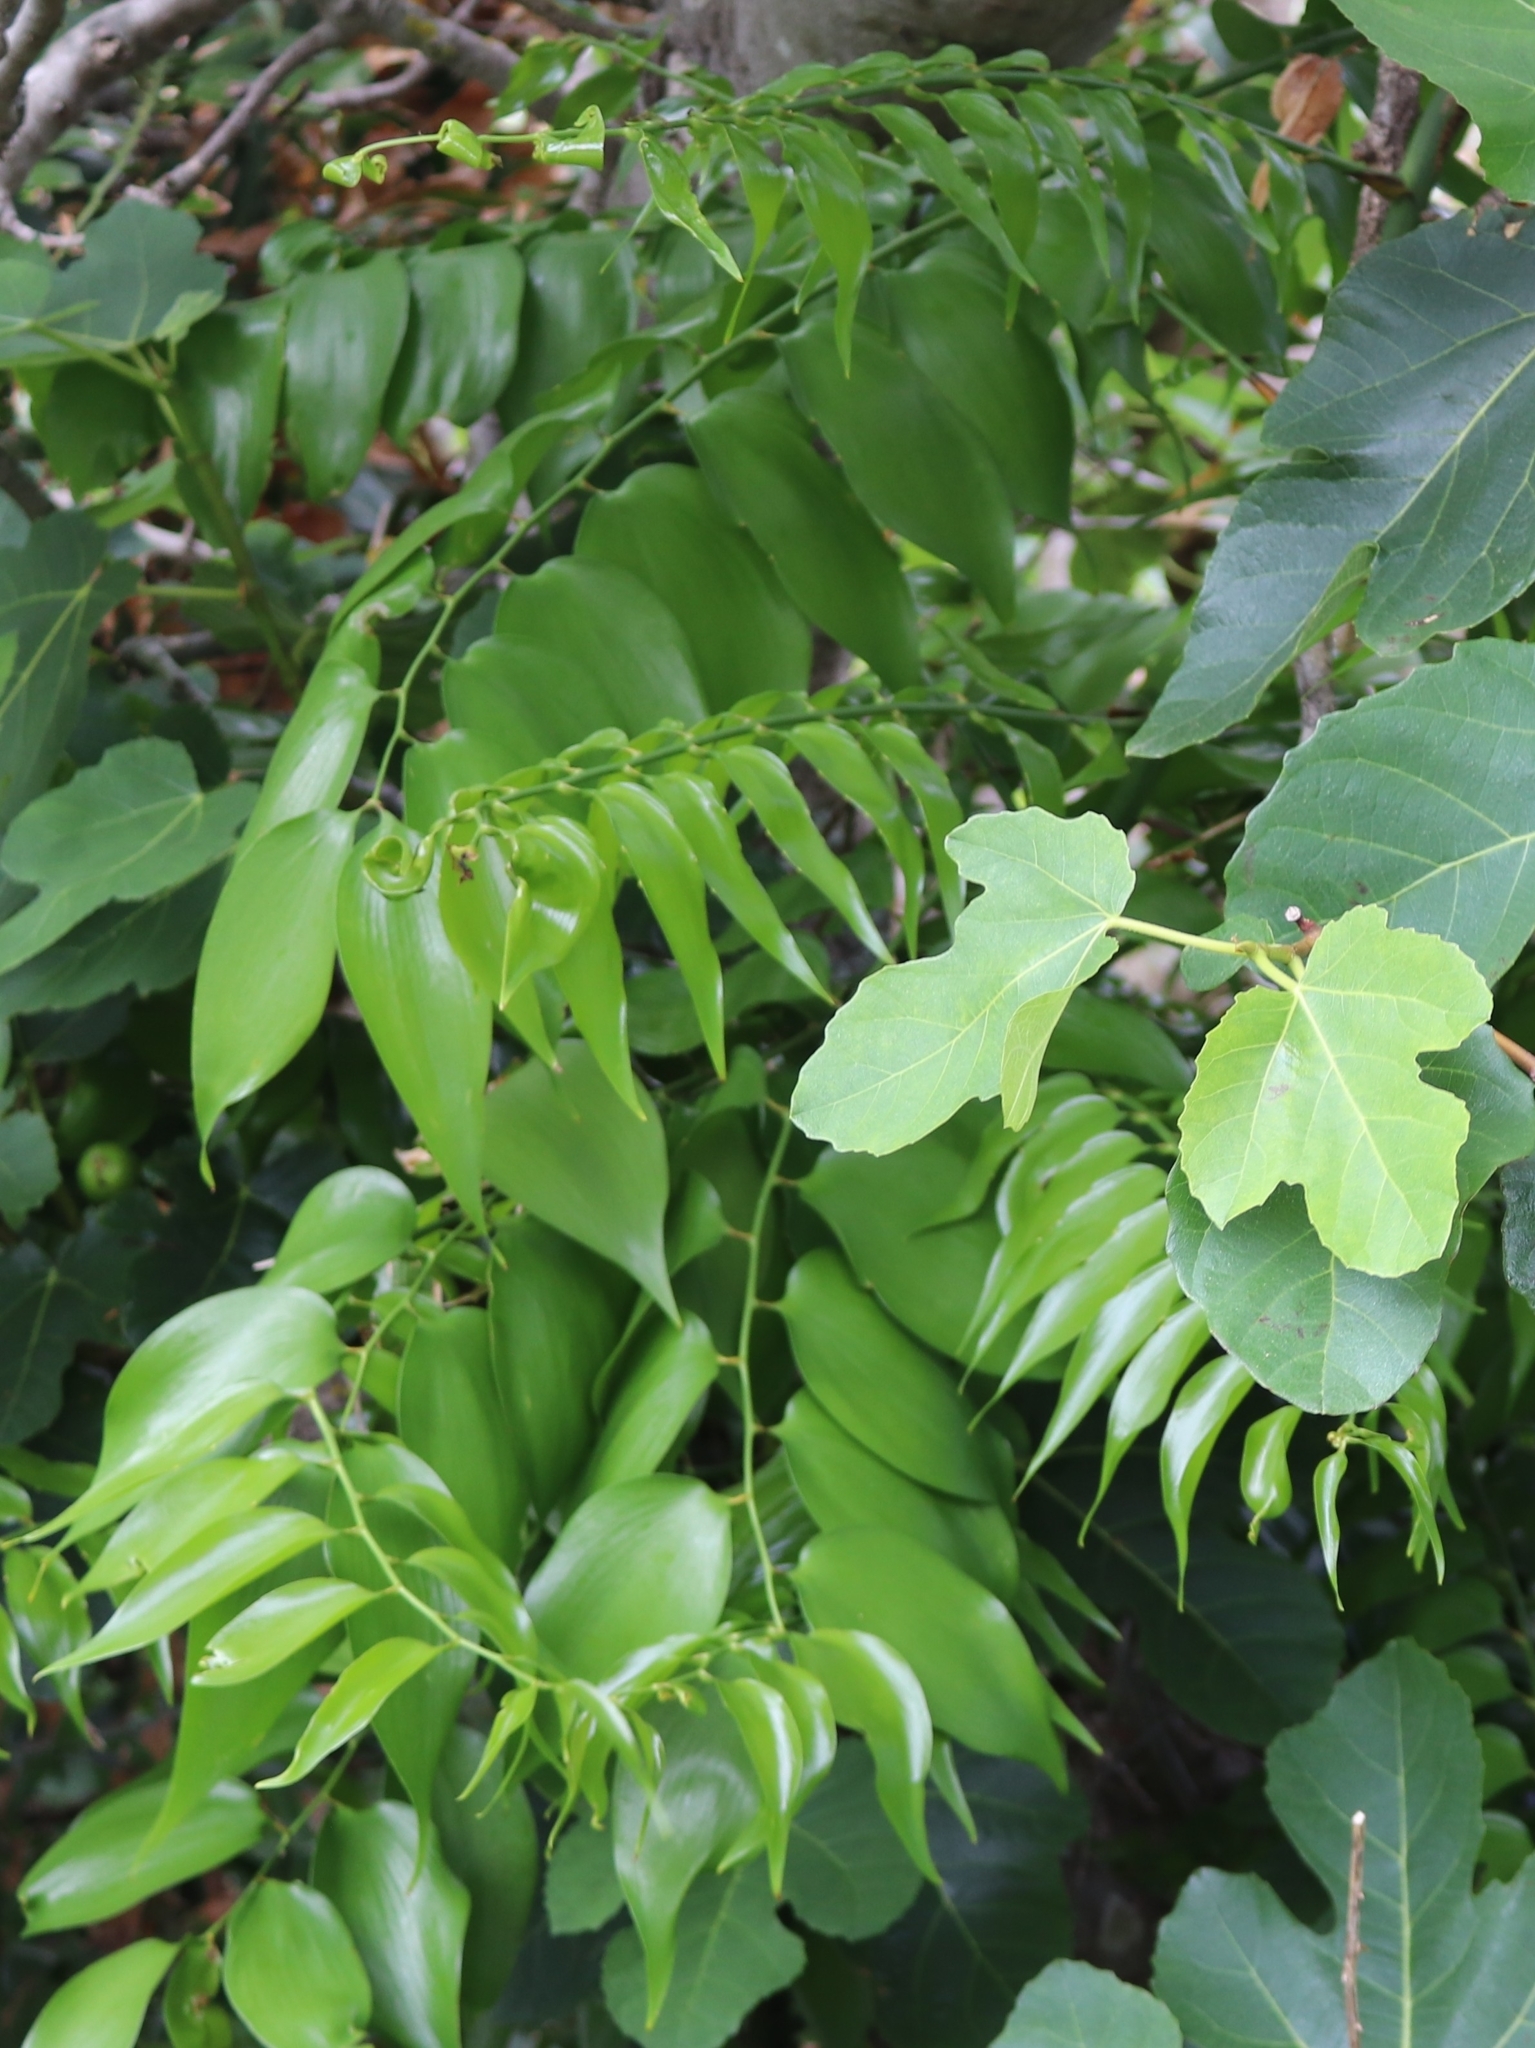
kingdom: Plantae
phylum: Tracheophyta
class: Liliopsida
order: Asparagales
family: Asparagaceae
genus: Semele
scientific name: Semele androgyna
